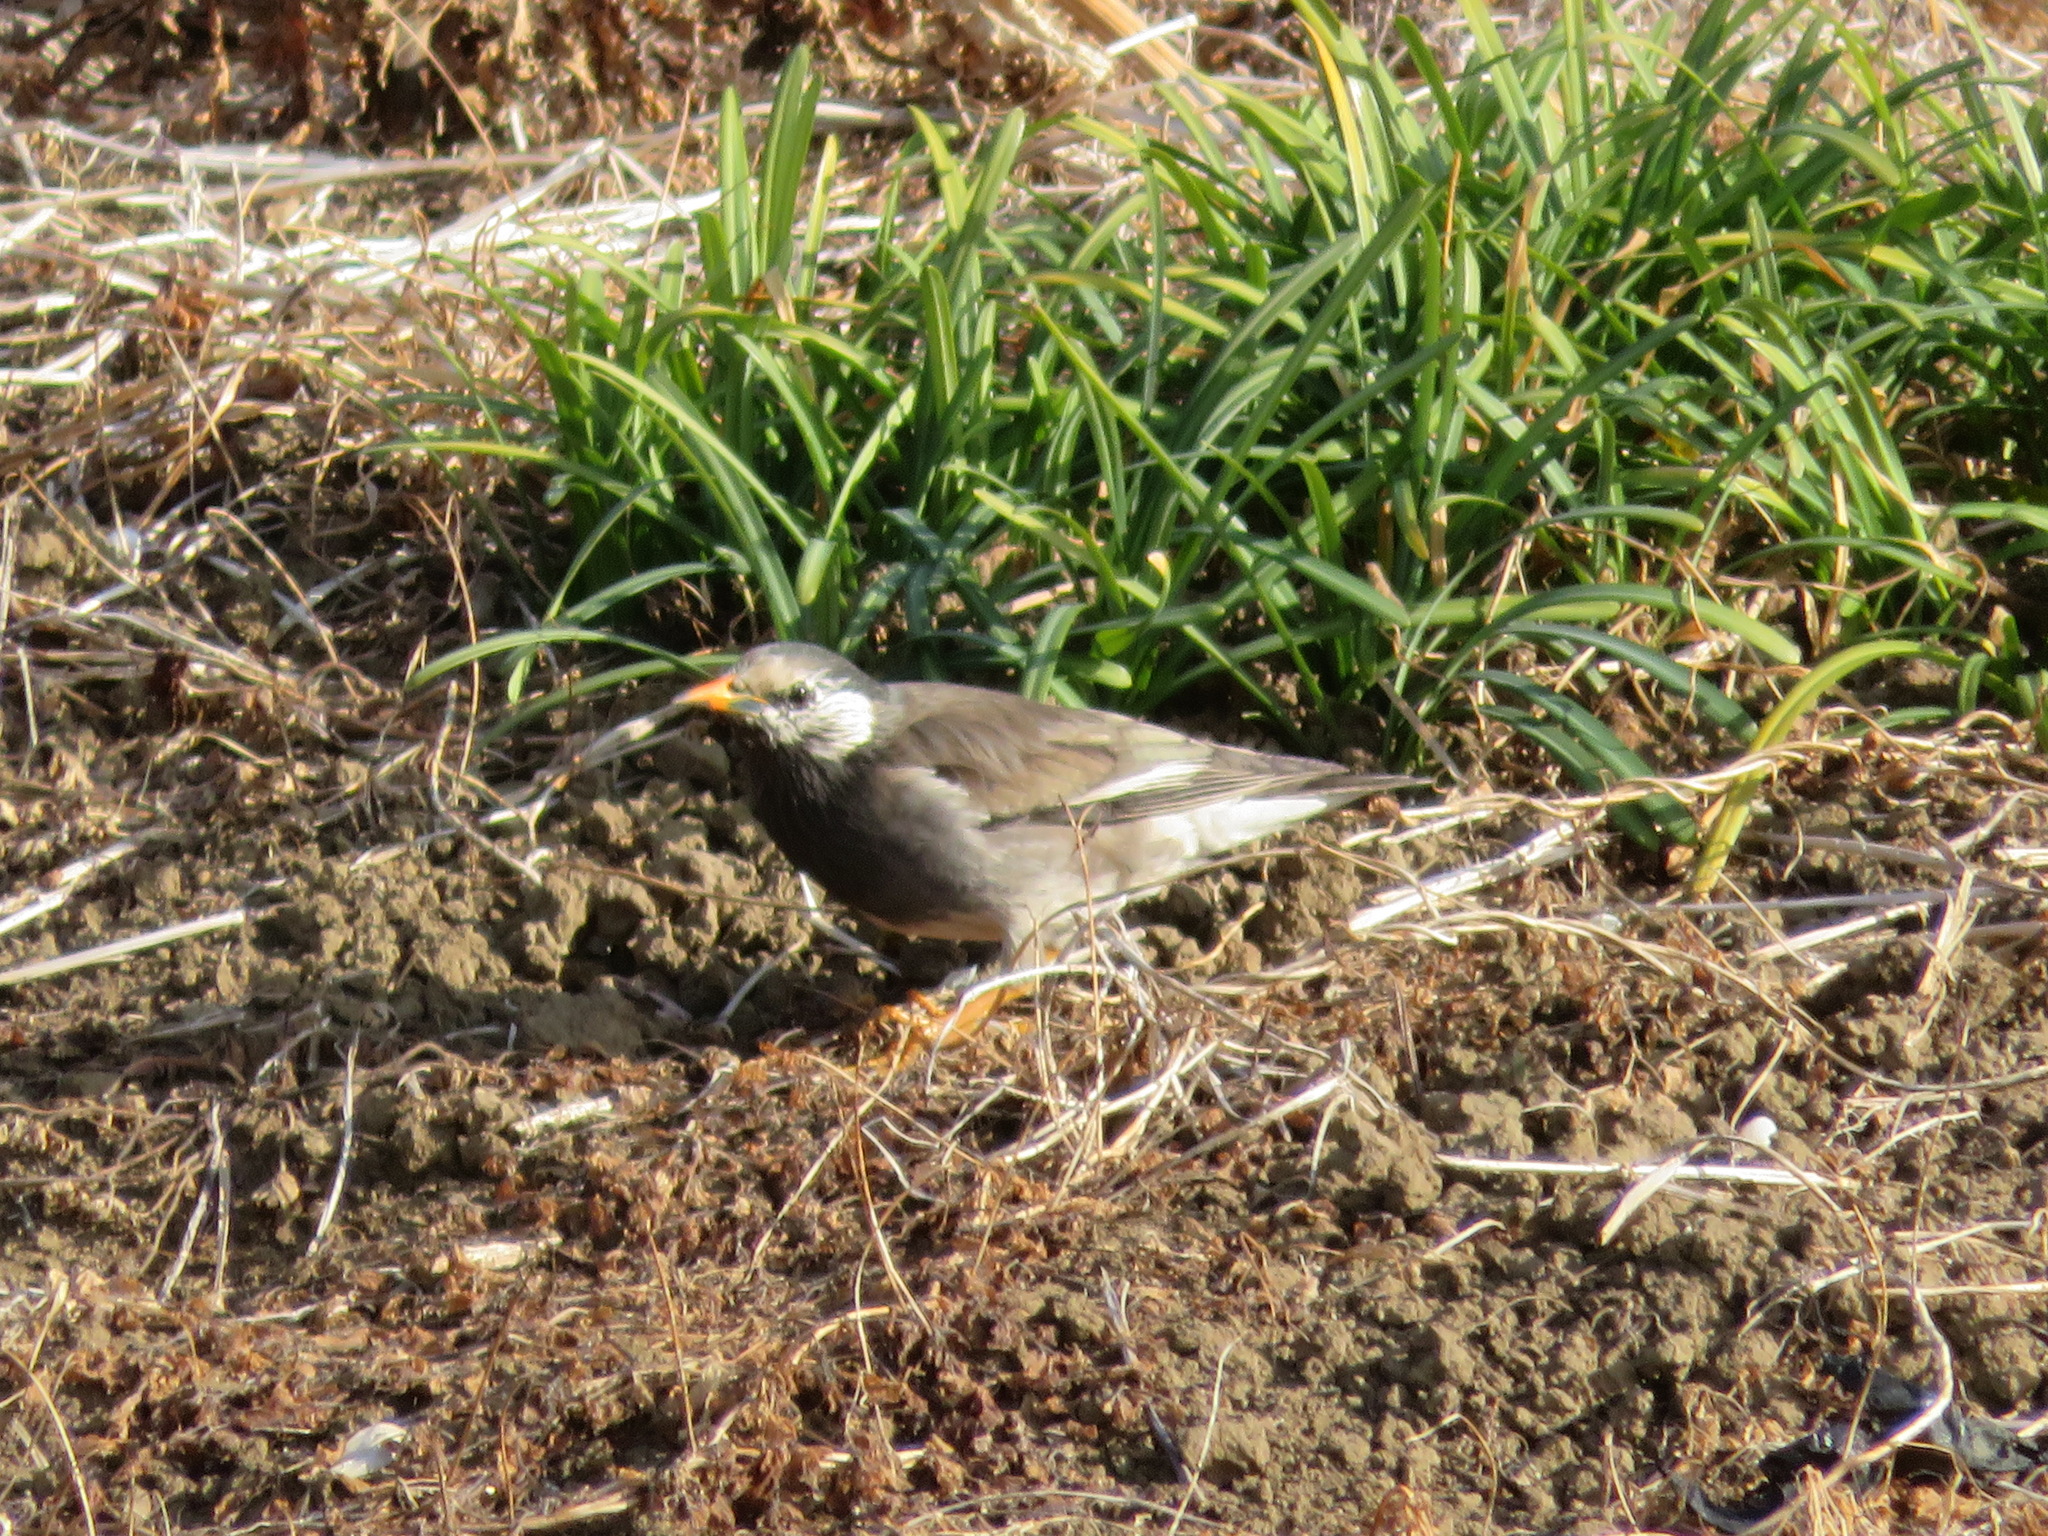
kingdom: Animalia
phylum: Chordata
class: Aves
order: Passeriformes
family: Sturnidae
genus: Spodiopsar
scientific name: Spodiopsar cineraceus
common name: White-cheeked starling
